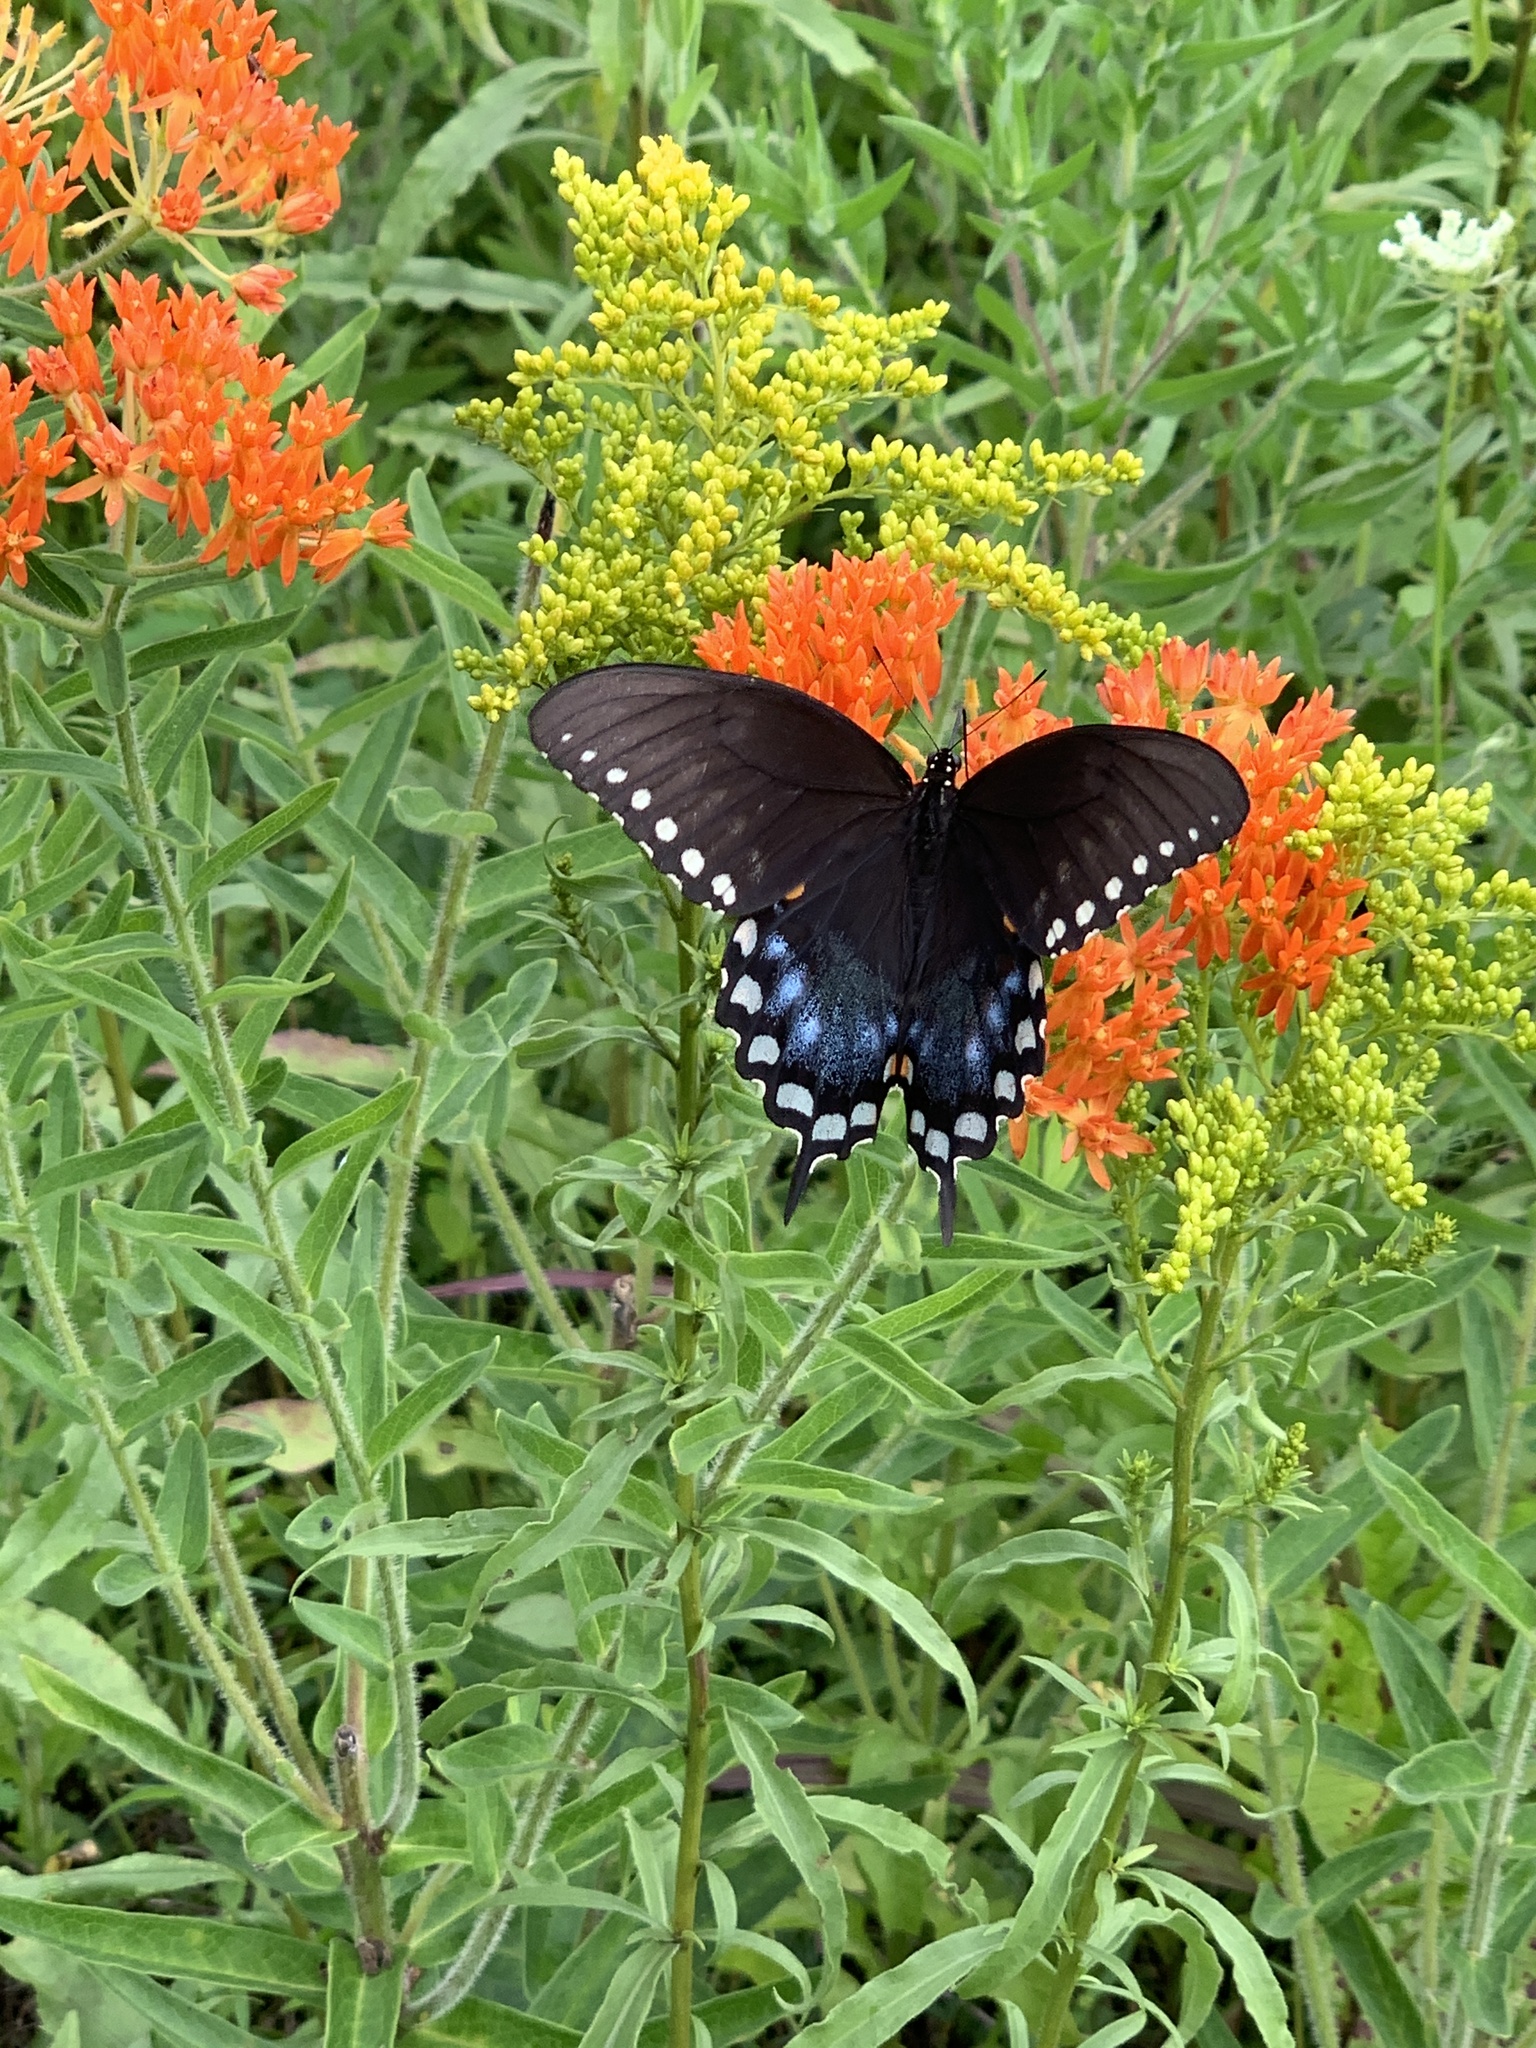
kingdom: Animalia
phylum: Arthropoda
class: Insecta
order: Lepidoptera
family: Papilionidae
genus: Papilio
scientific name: Papilio troilus
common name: Spicebush swallowtail
